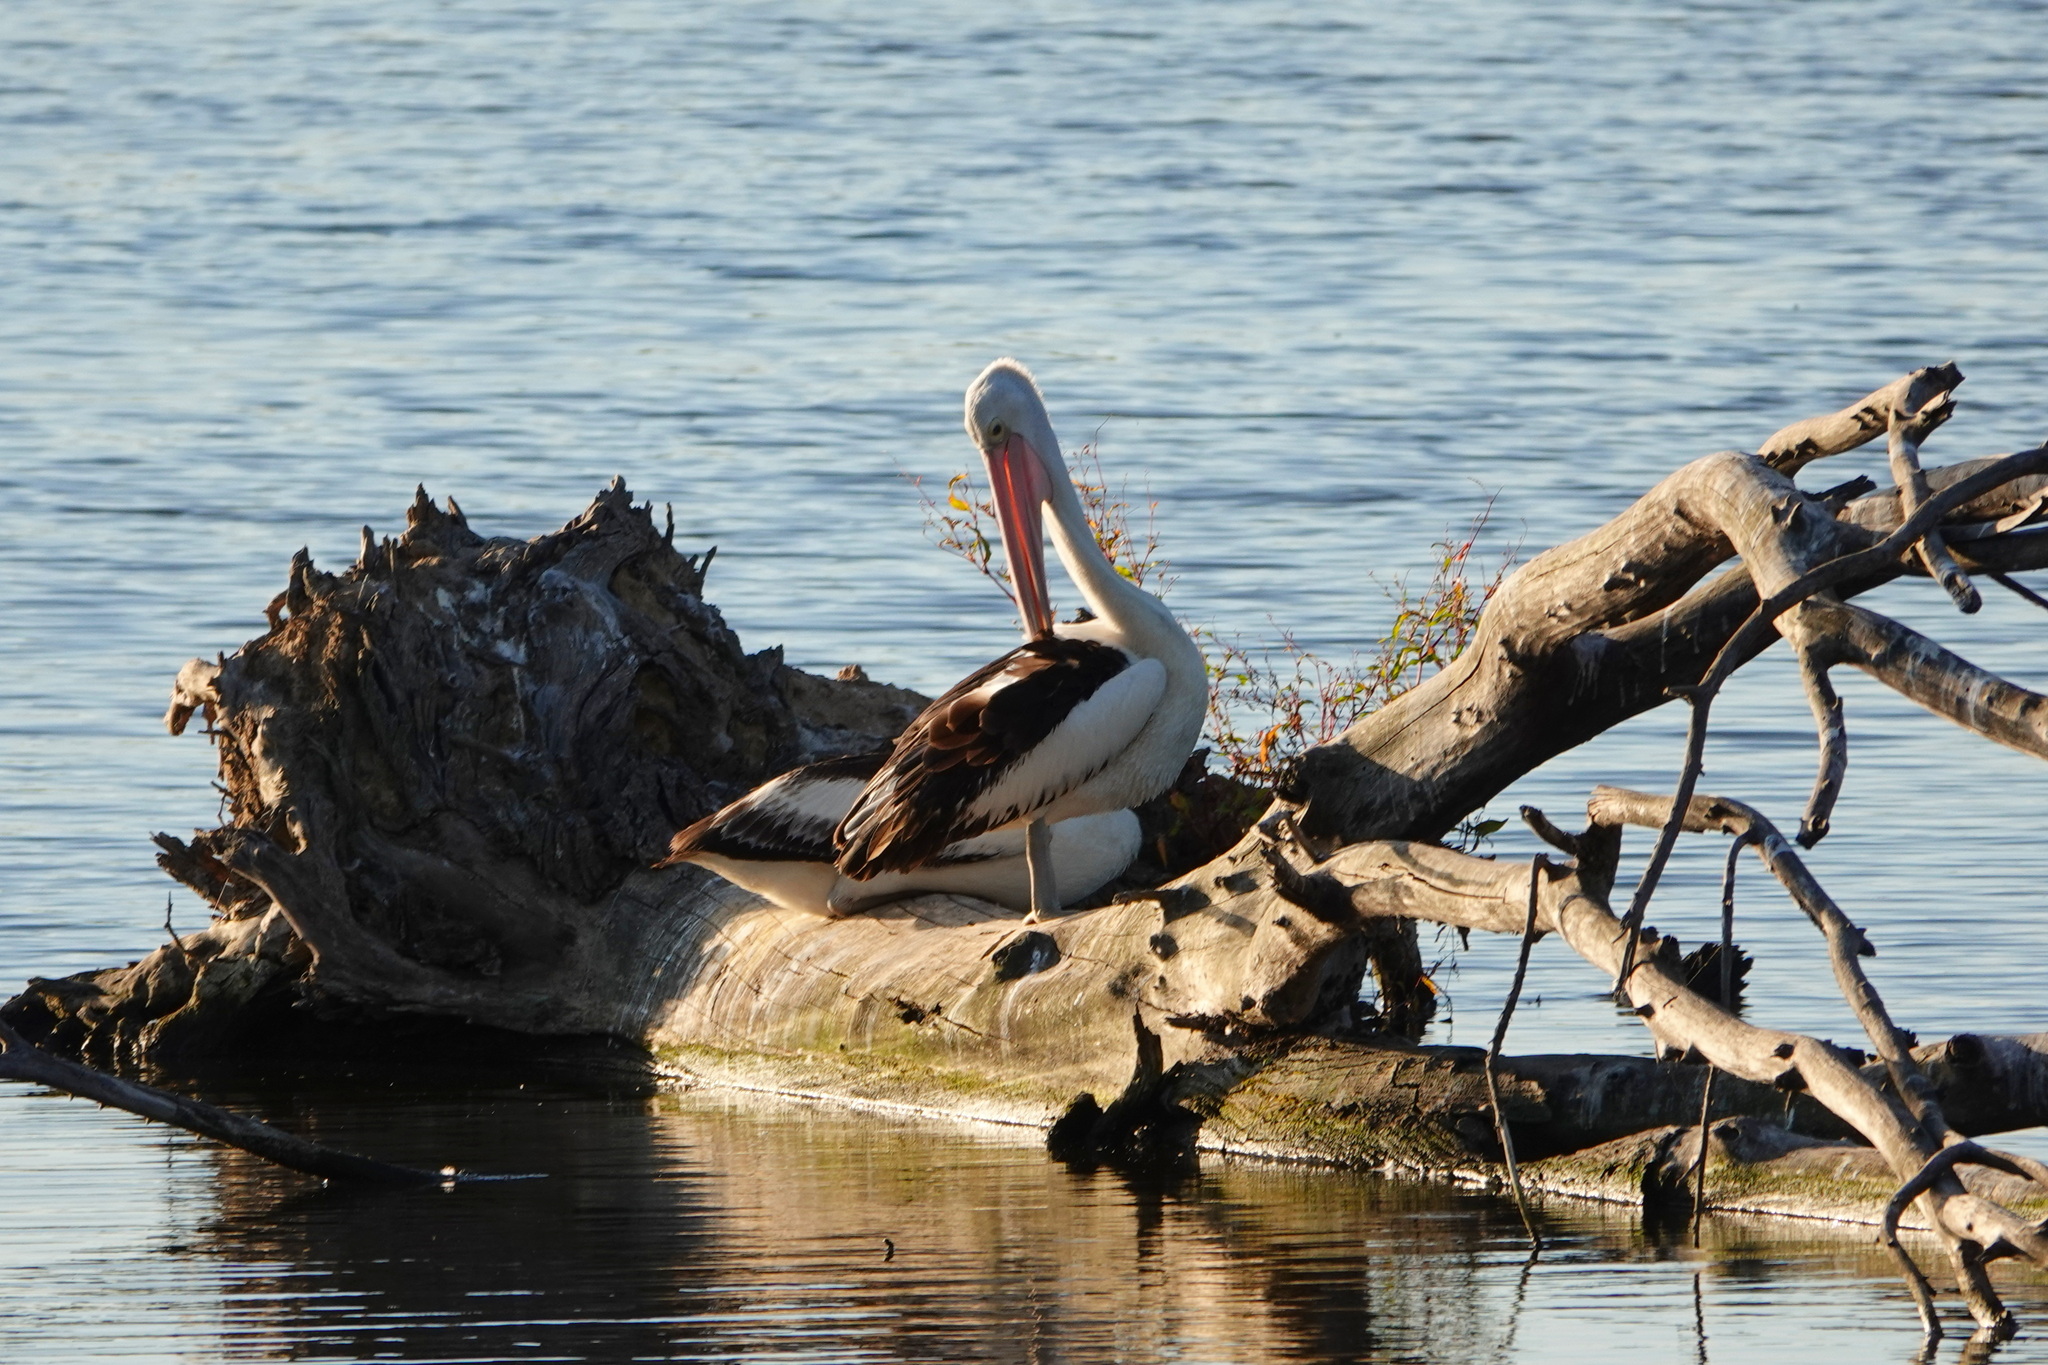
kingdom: Animalia
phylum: Chordata
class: Aves
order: Pelecaniformes
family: Pelecanidae
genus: Pelecanus
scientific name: Pelecanus conspicillatus
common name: Australian pelican
